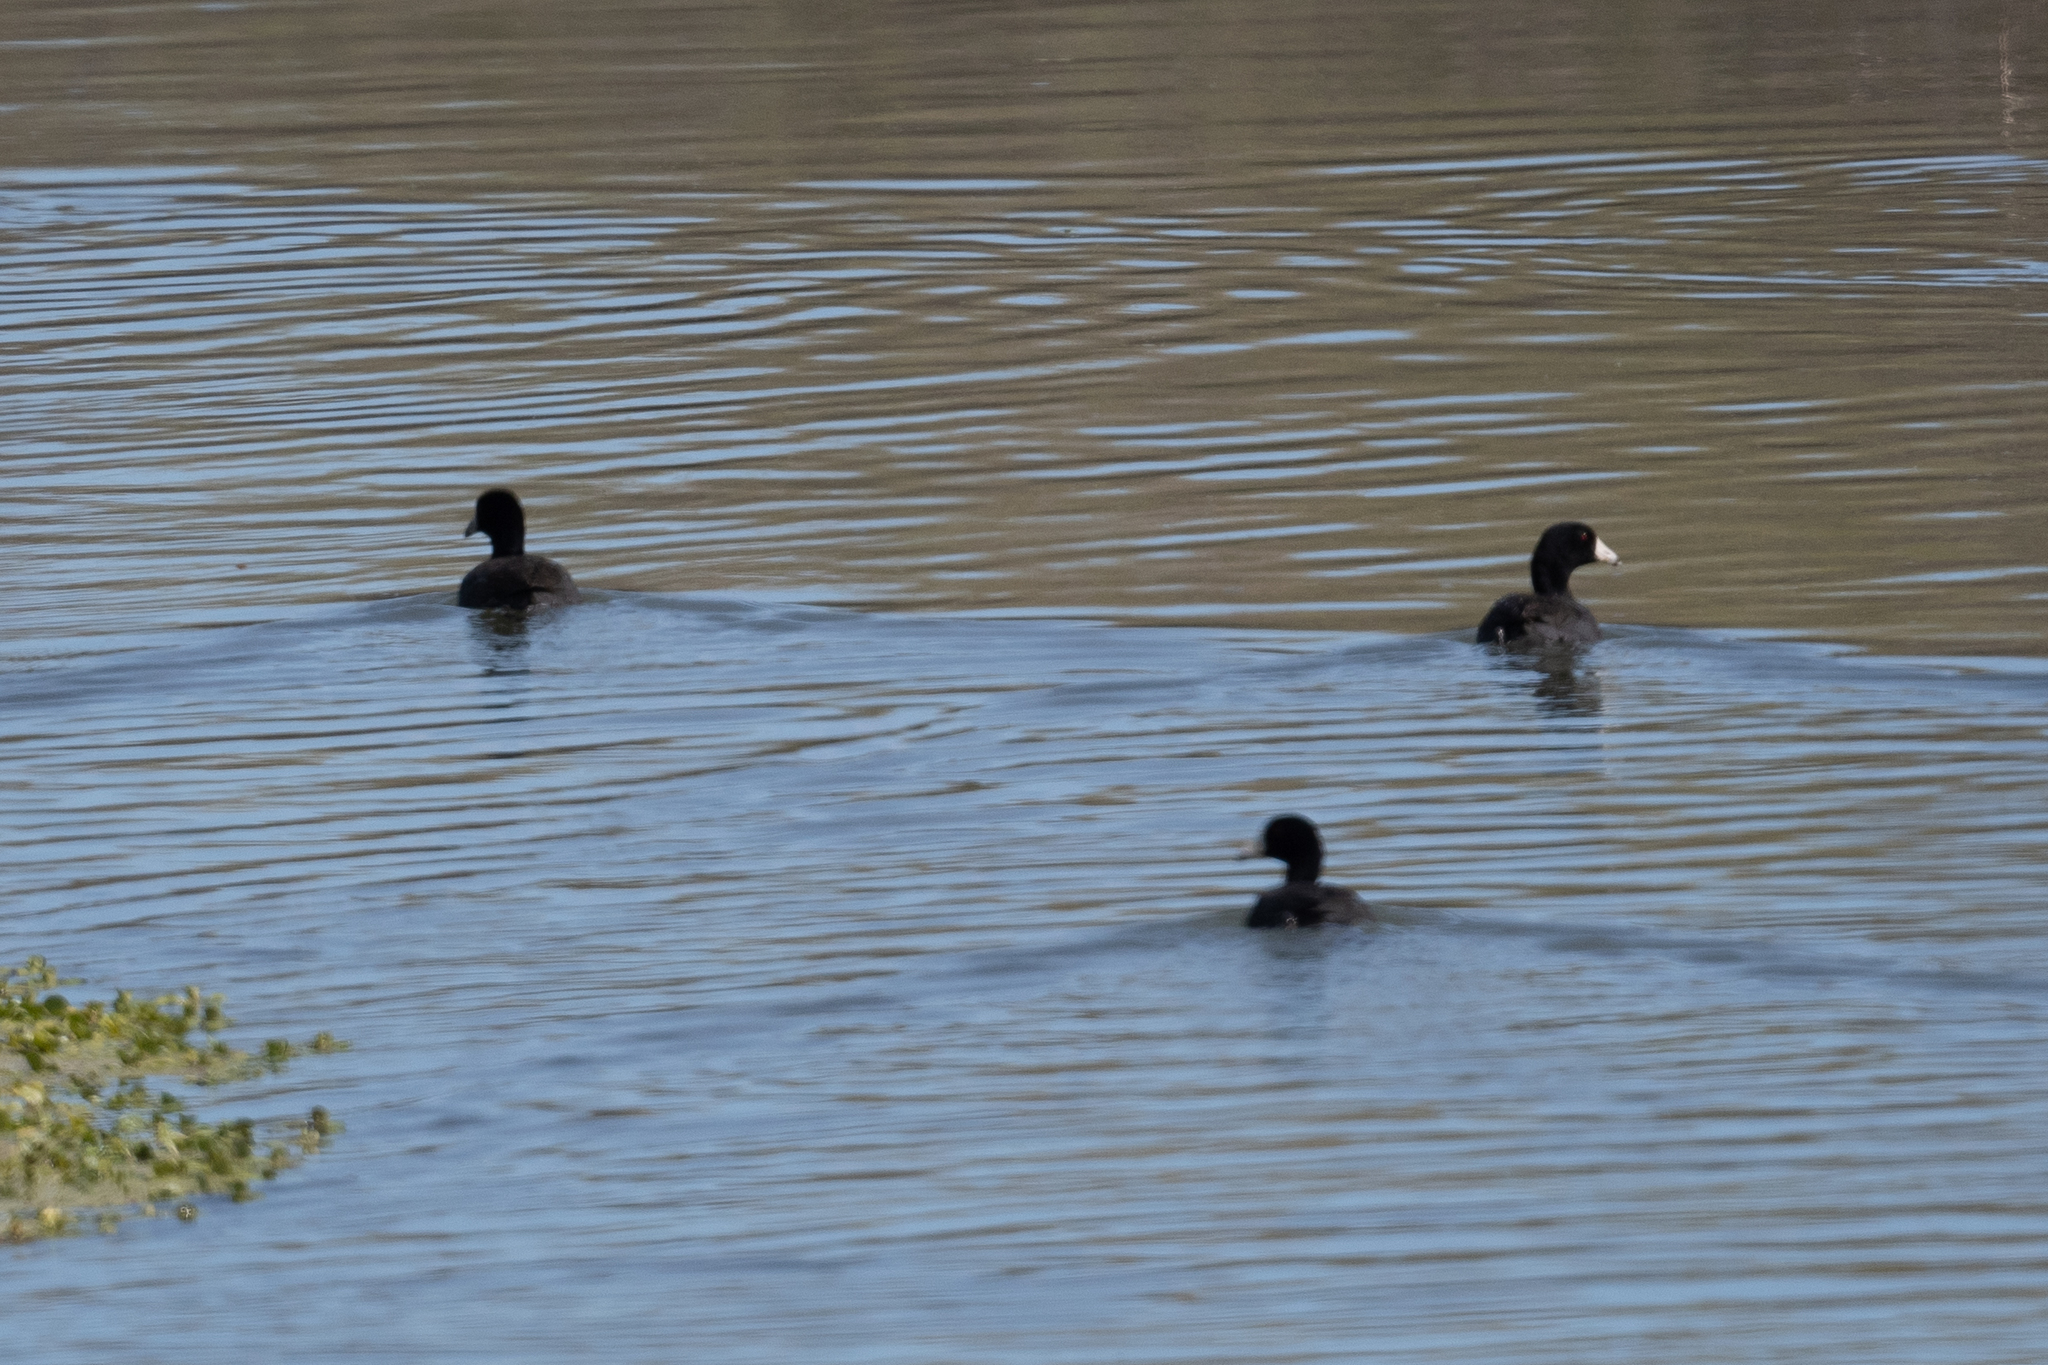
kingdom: Animalia
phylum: Chordata
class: Aves
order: Gruiformes
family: Rallidae
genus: Fulica
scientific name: Fulica americana
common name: American coot
